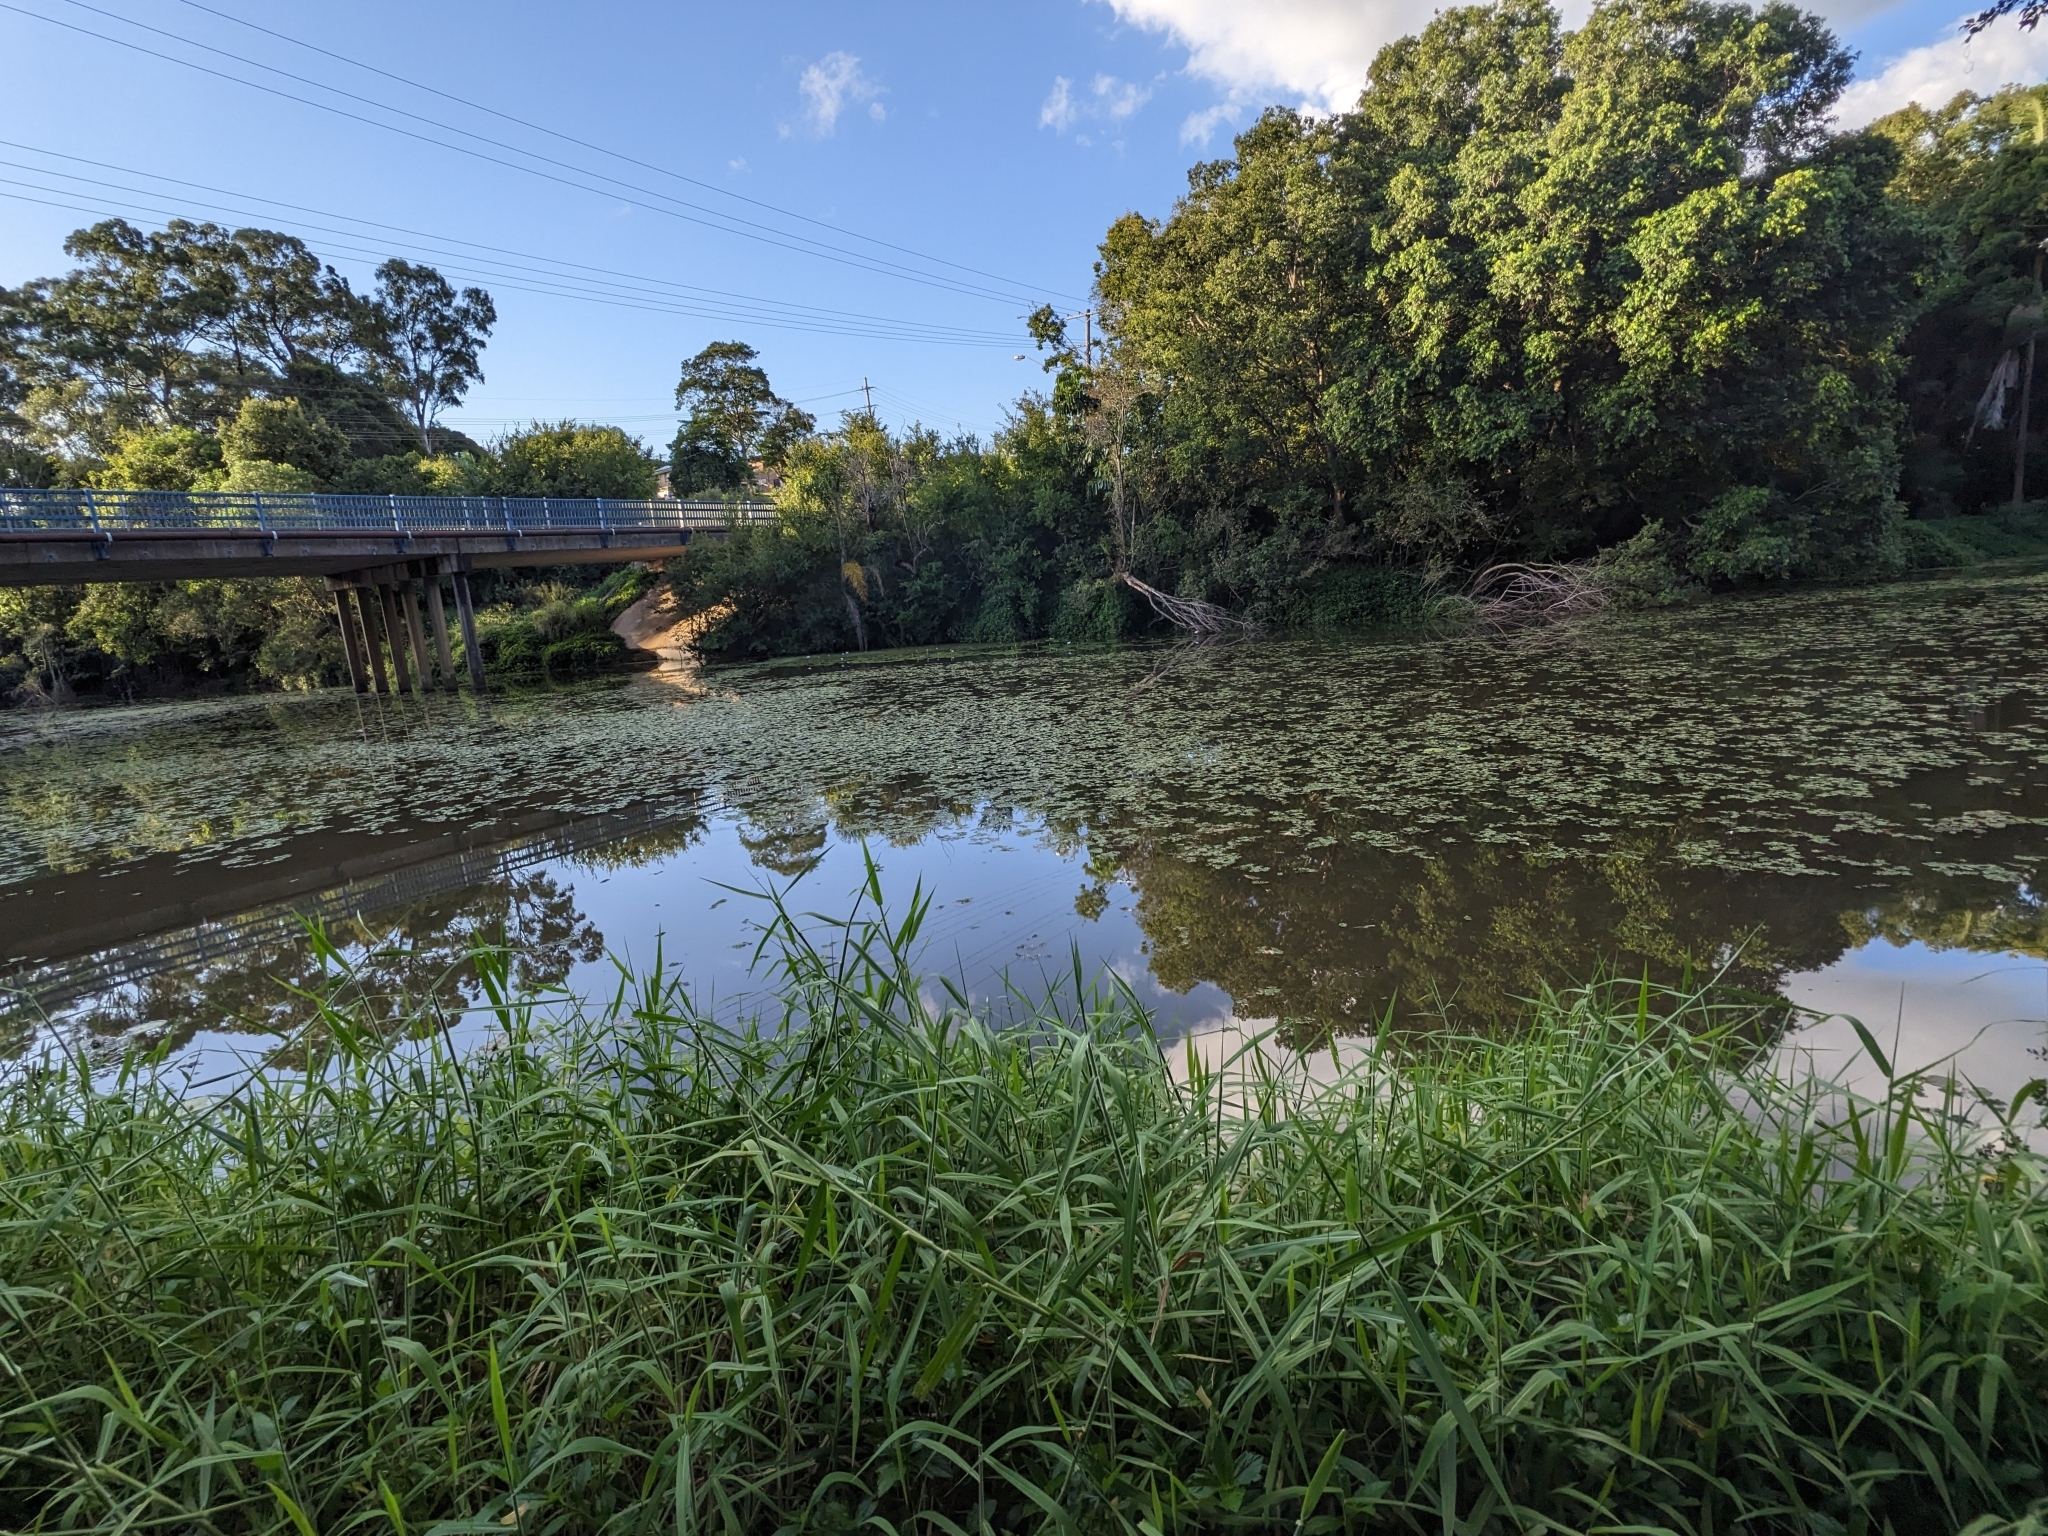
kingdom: Plantae
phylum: Tracheophyta
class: Polypodiopsida
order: Salviniales
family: Salviniaceae
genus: Salvinia
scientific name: Salvinia molesta
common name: Kariba weed
